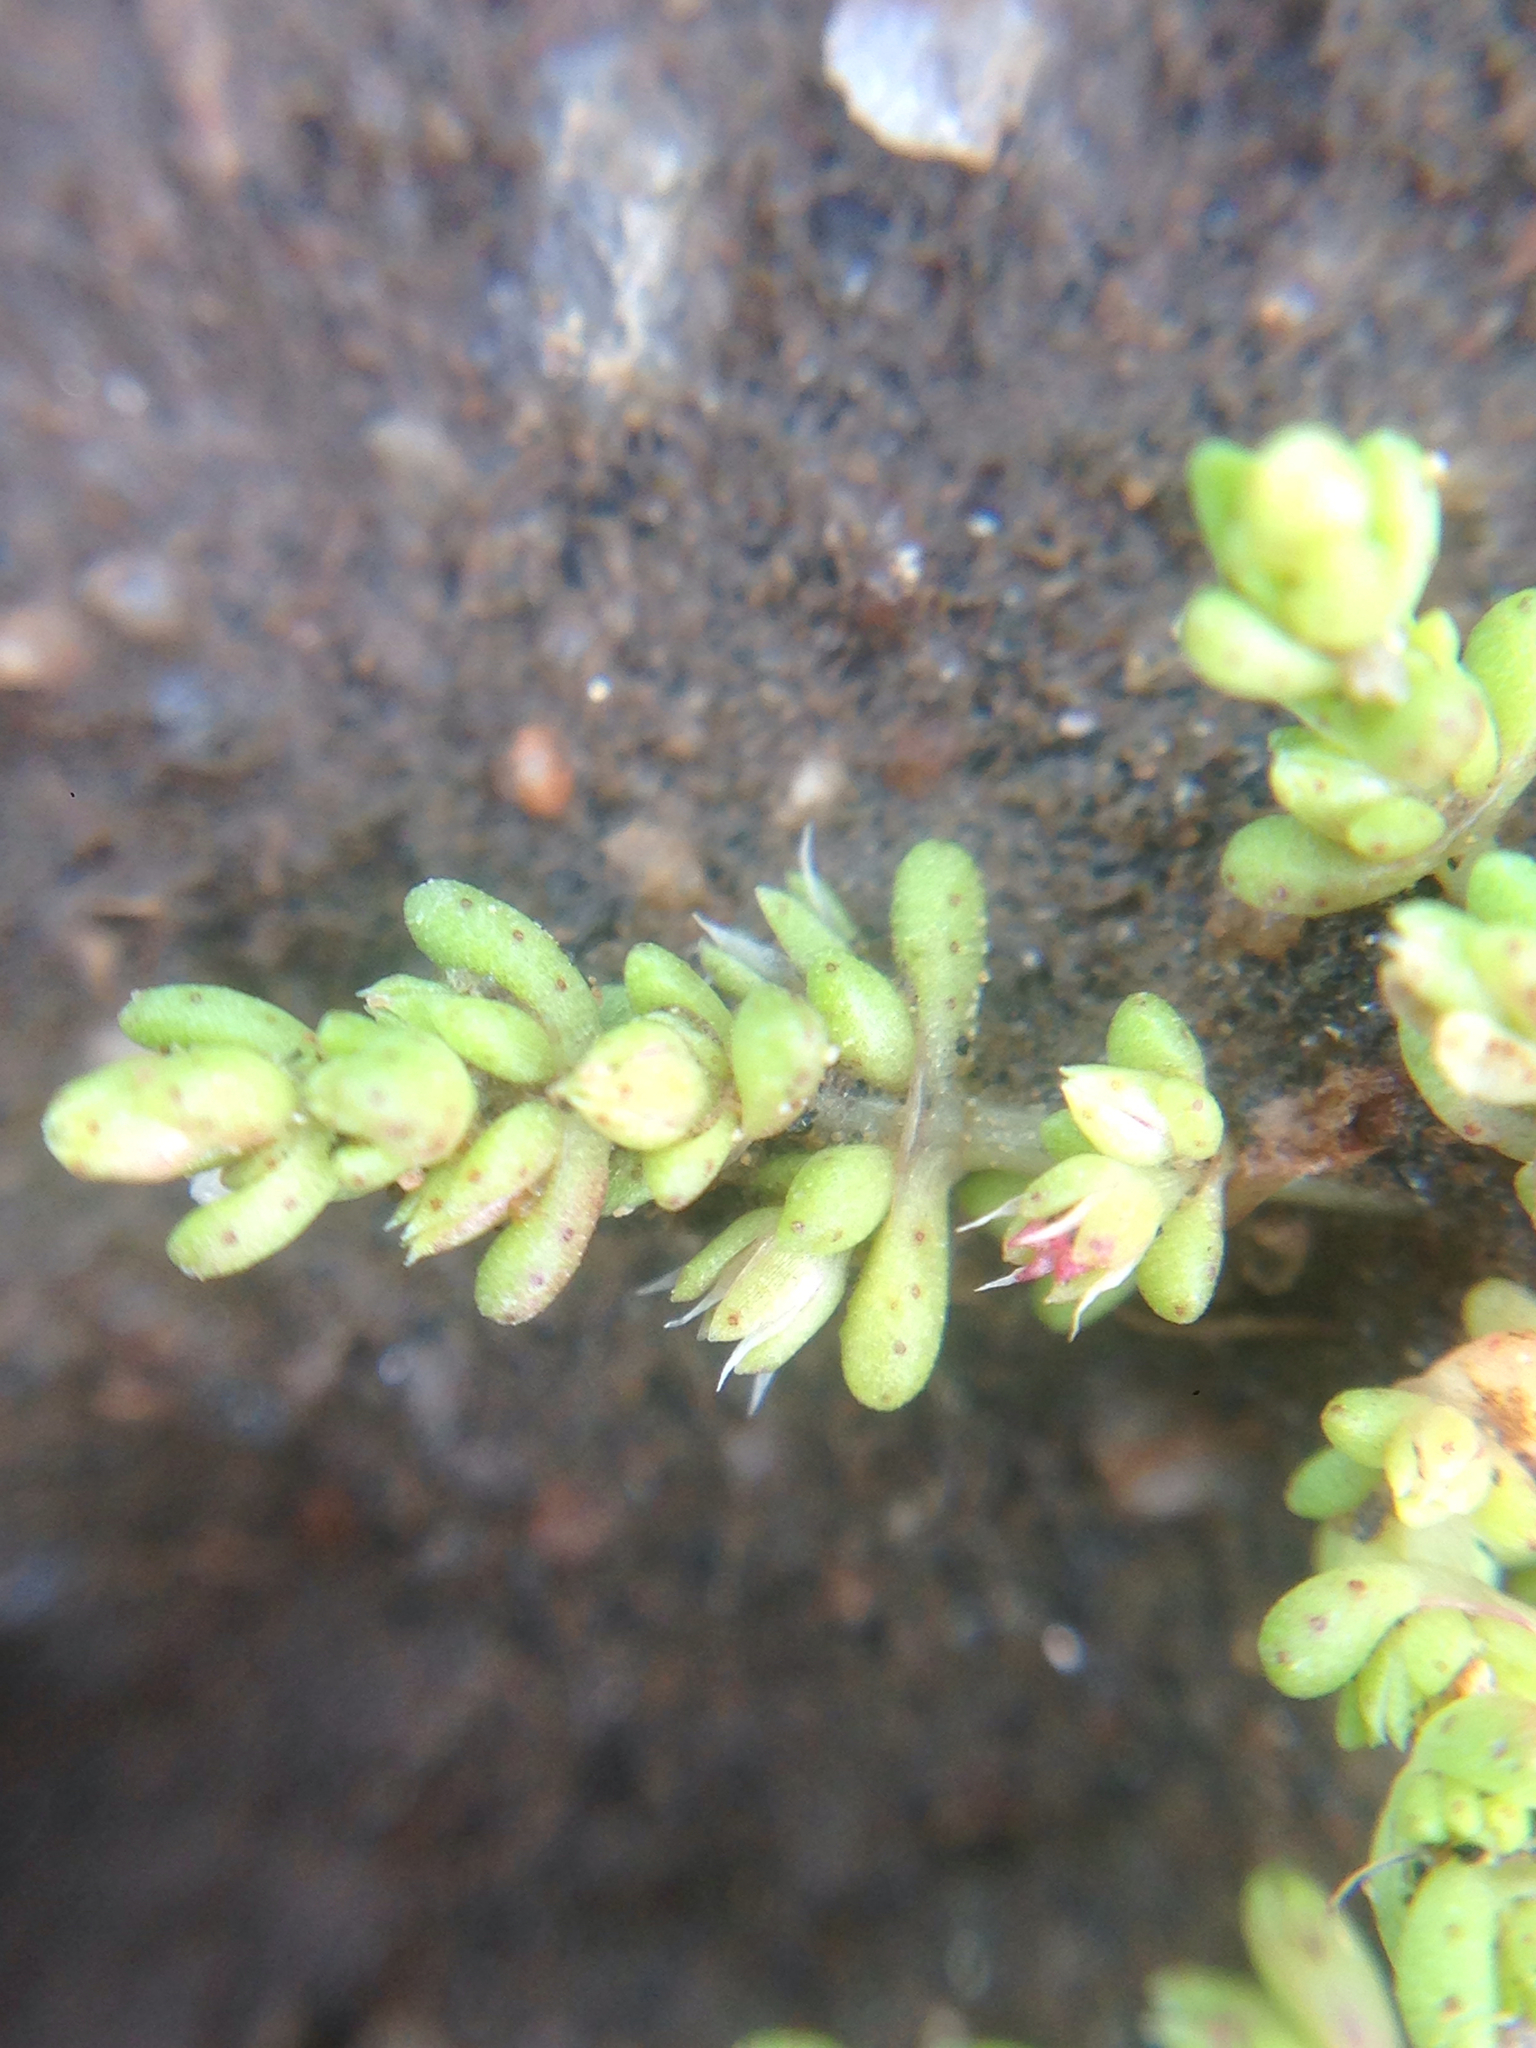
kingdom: Plantae
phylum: Tracheophyta
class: Magnoliopsida
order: Saxifragales
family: Crassulaceae
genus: Crassula
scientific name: Crassula connata
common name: Erect pygmyweed
